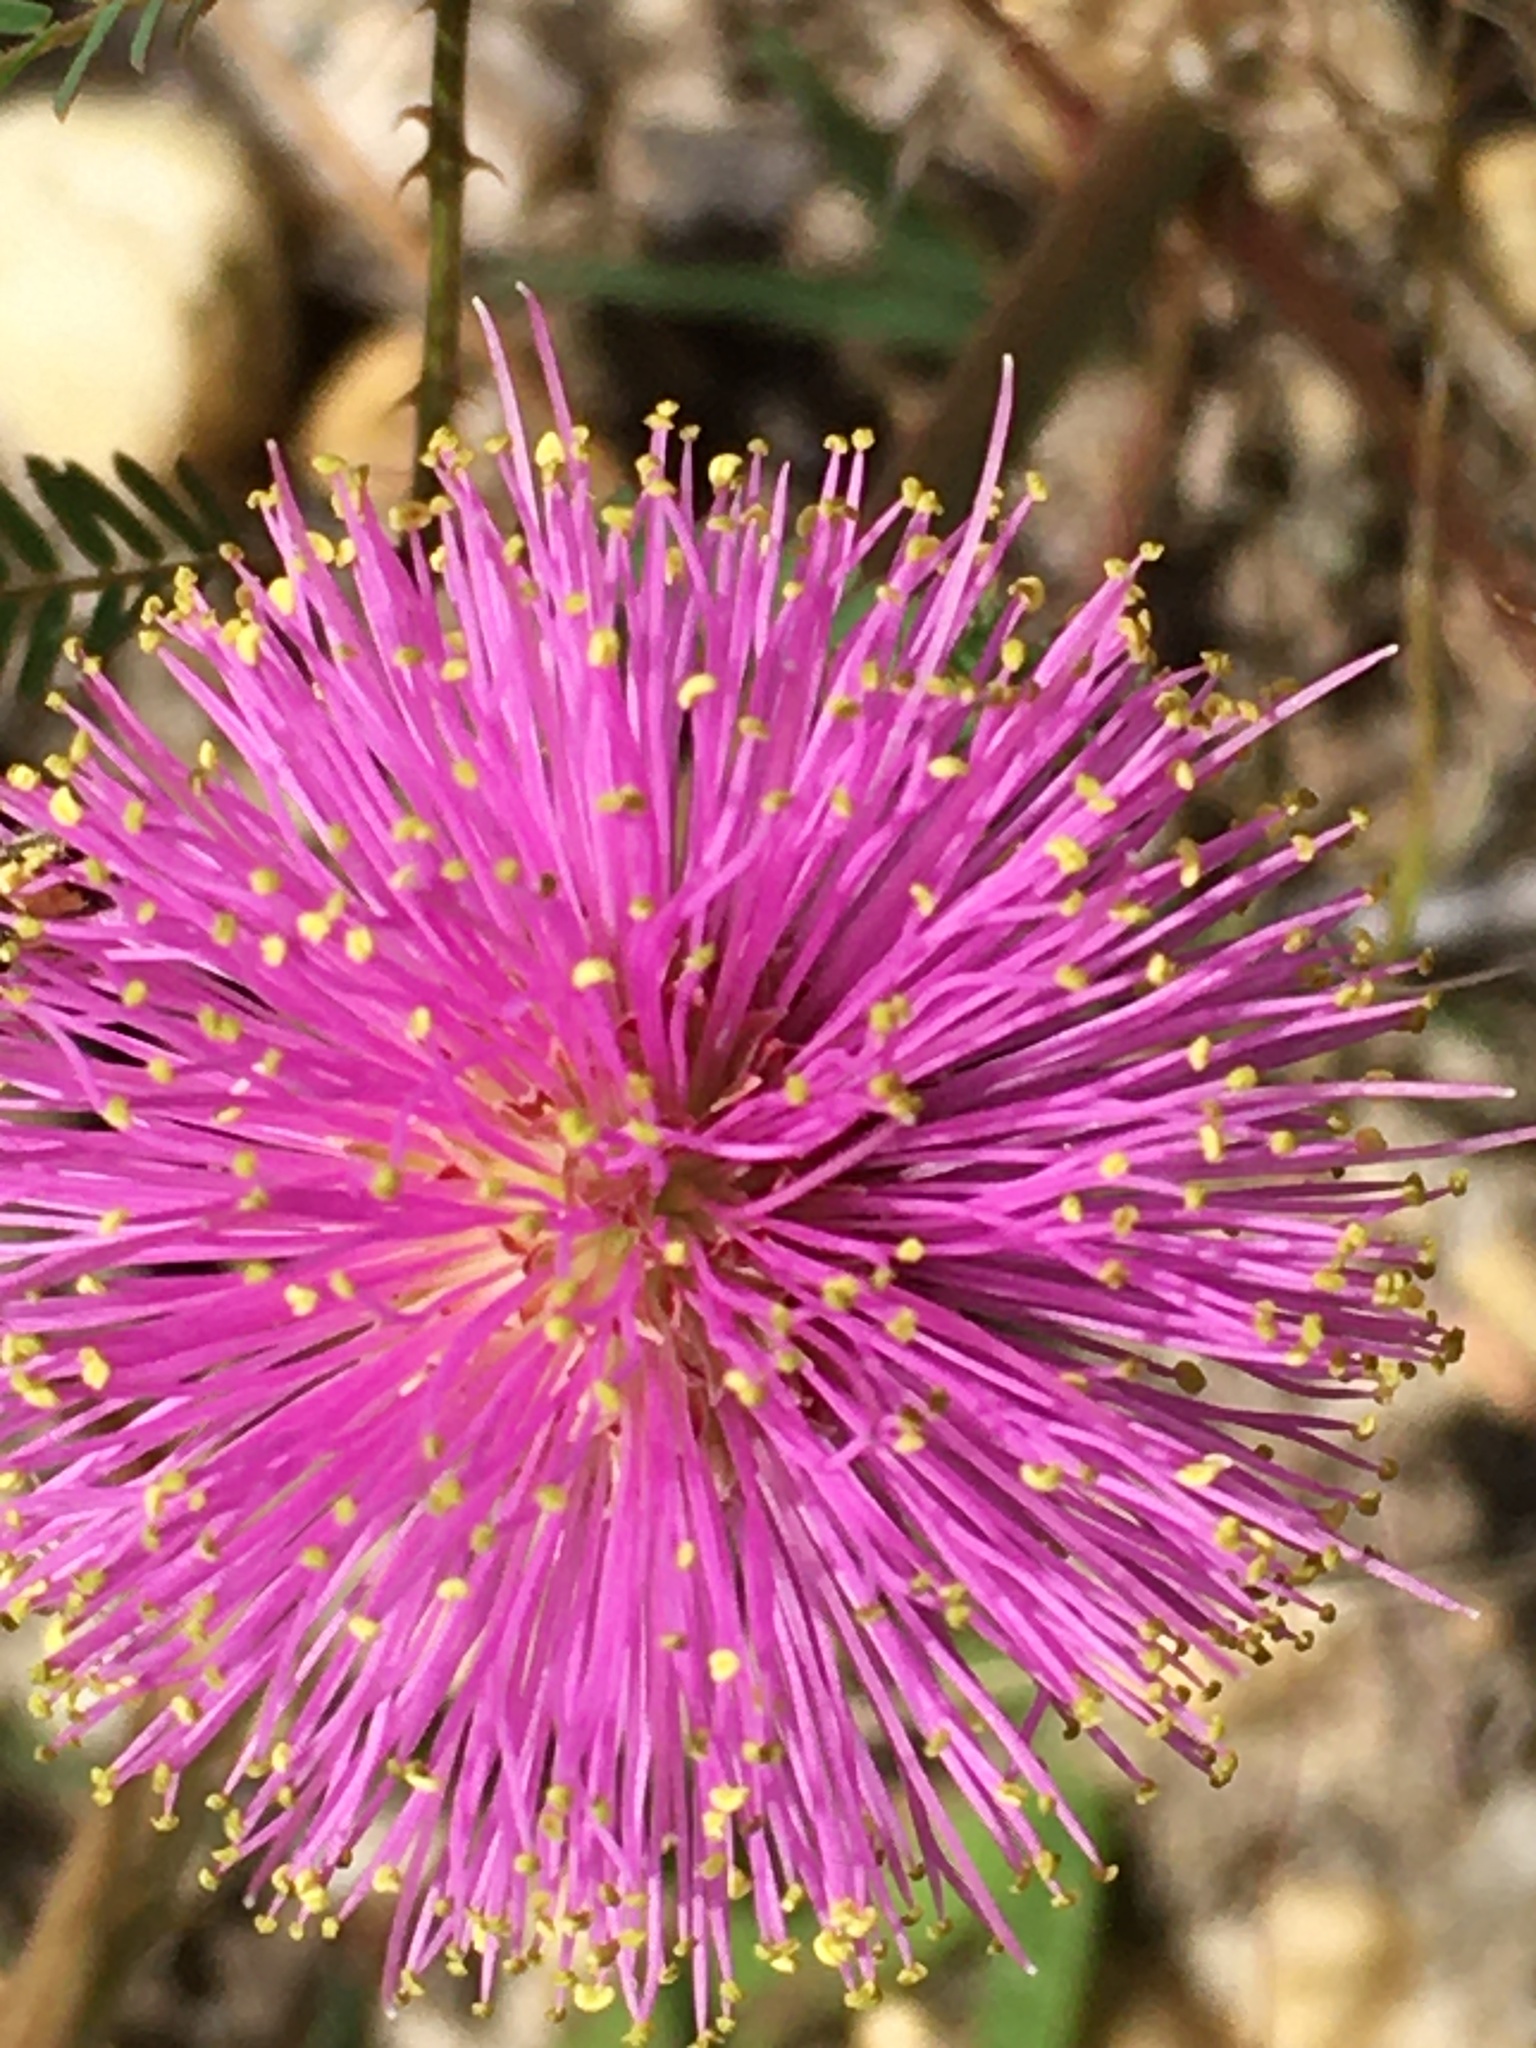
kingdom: Plantae
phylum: Tracheophyta
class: Magnoliopsida
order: Fabales
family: Fabaceae
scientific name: Fabaceae
